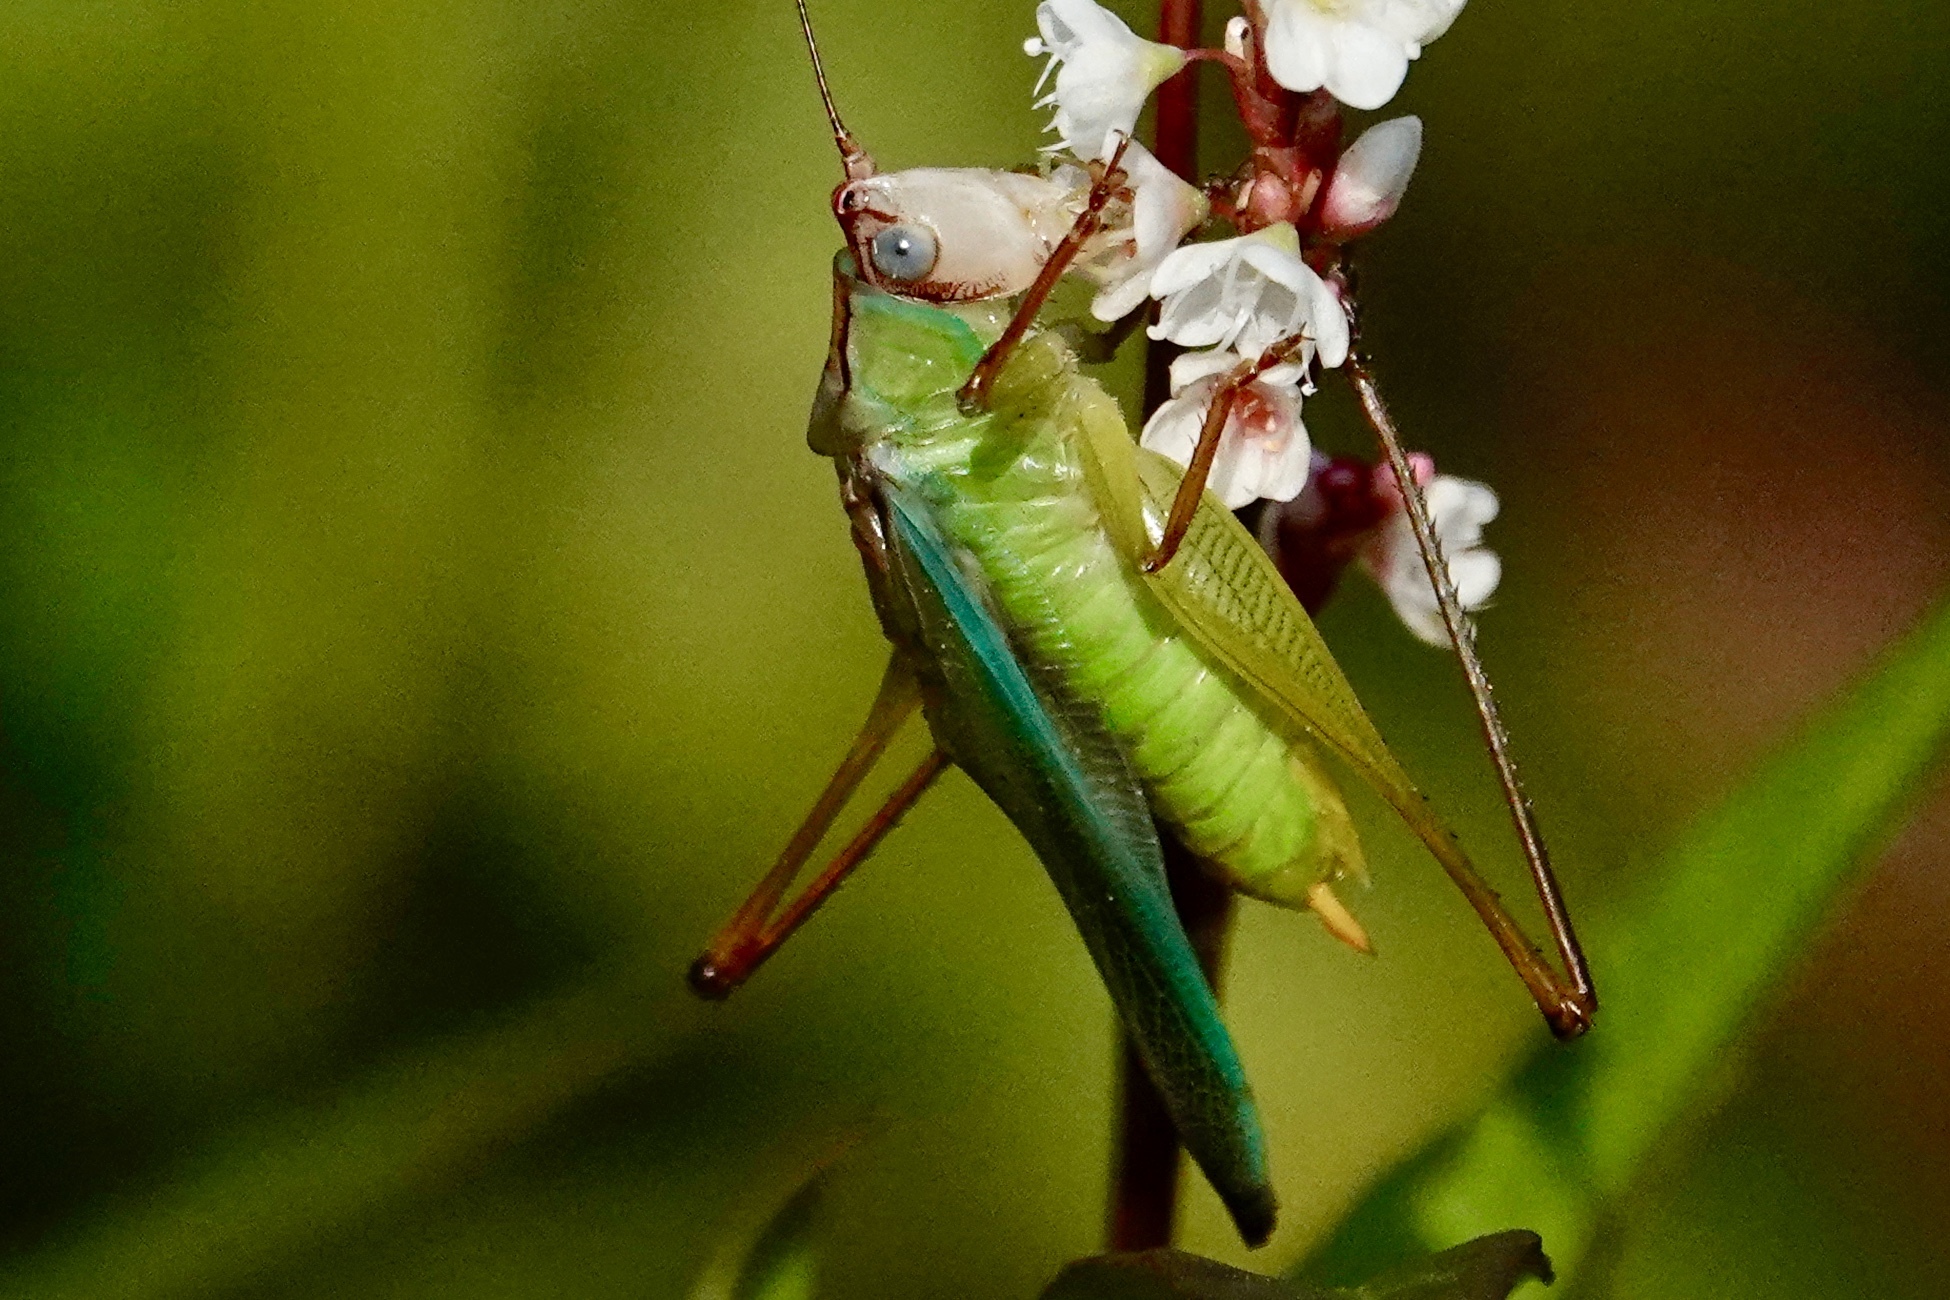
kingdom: Animalia
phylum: Arthropoda
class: Insecta
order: Orthoptera
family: Tettigoniidae
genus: Orchelimum
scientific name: Orchelimum pulchellum
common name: Handsome meadow katydid
